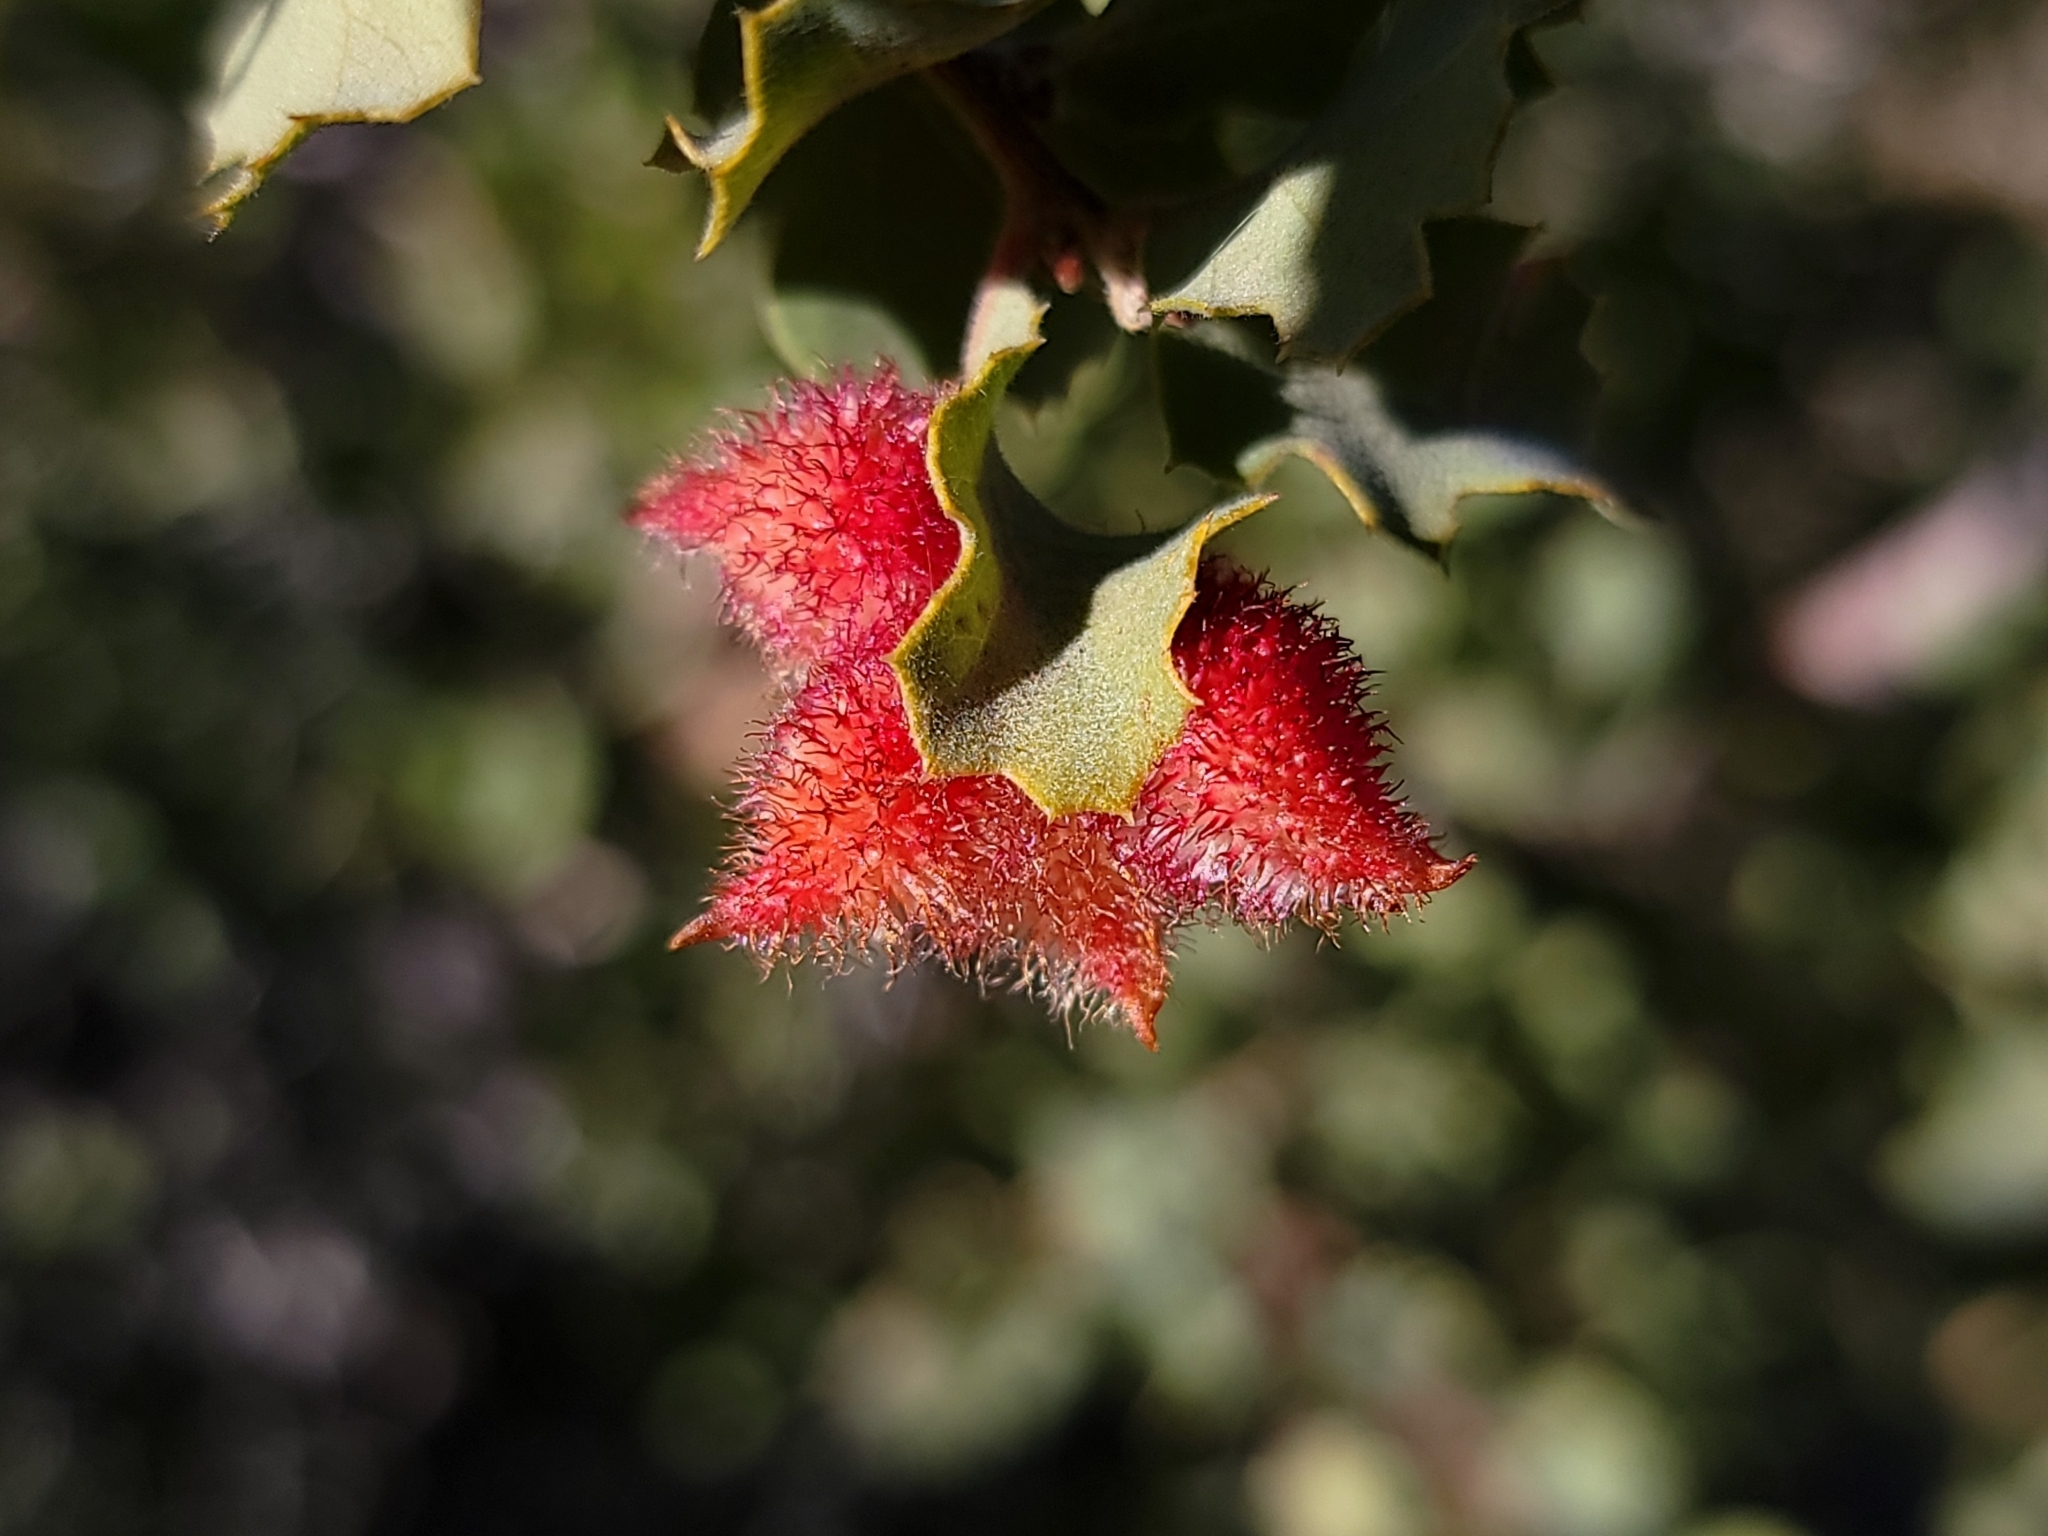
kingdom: Animalia
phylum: Arthropoda
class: Insecta
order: Hymenoptera
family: Cynipidae
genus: Andricus
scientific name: Andricus
